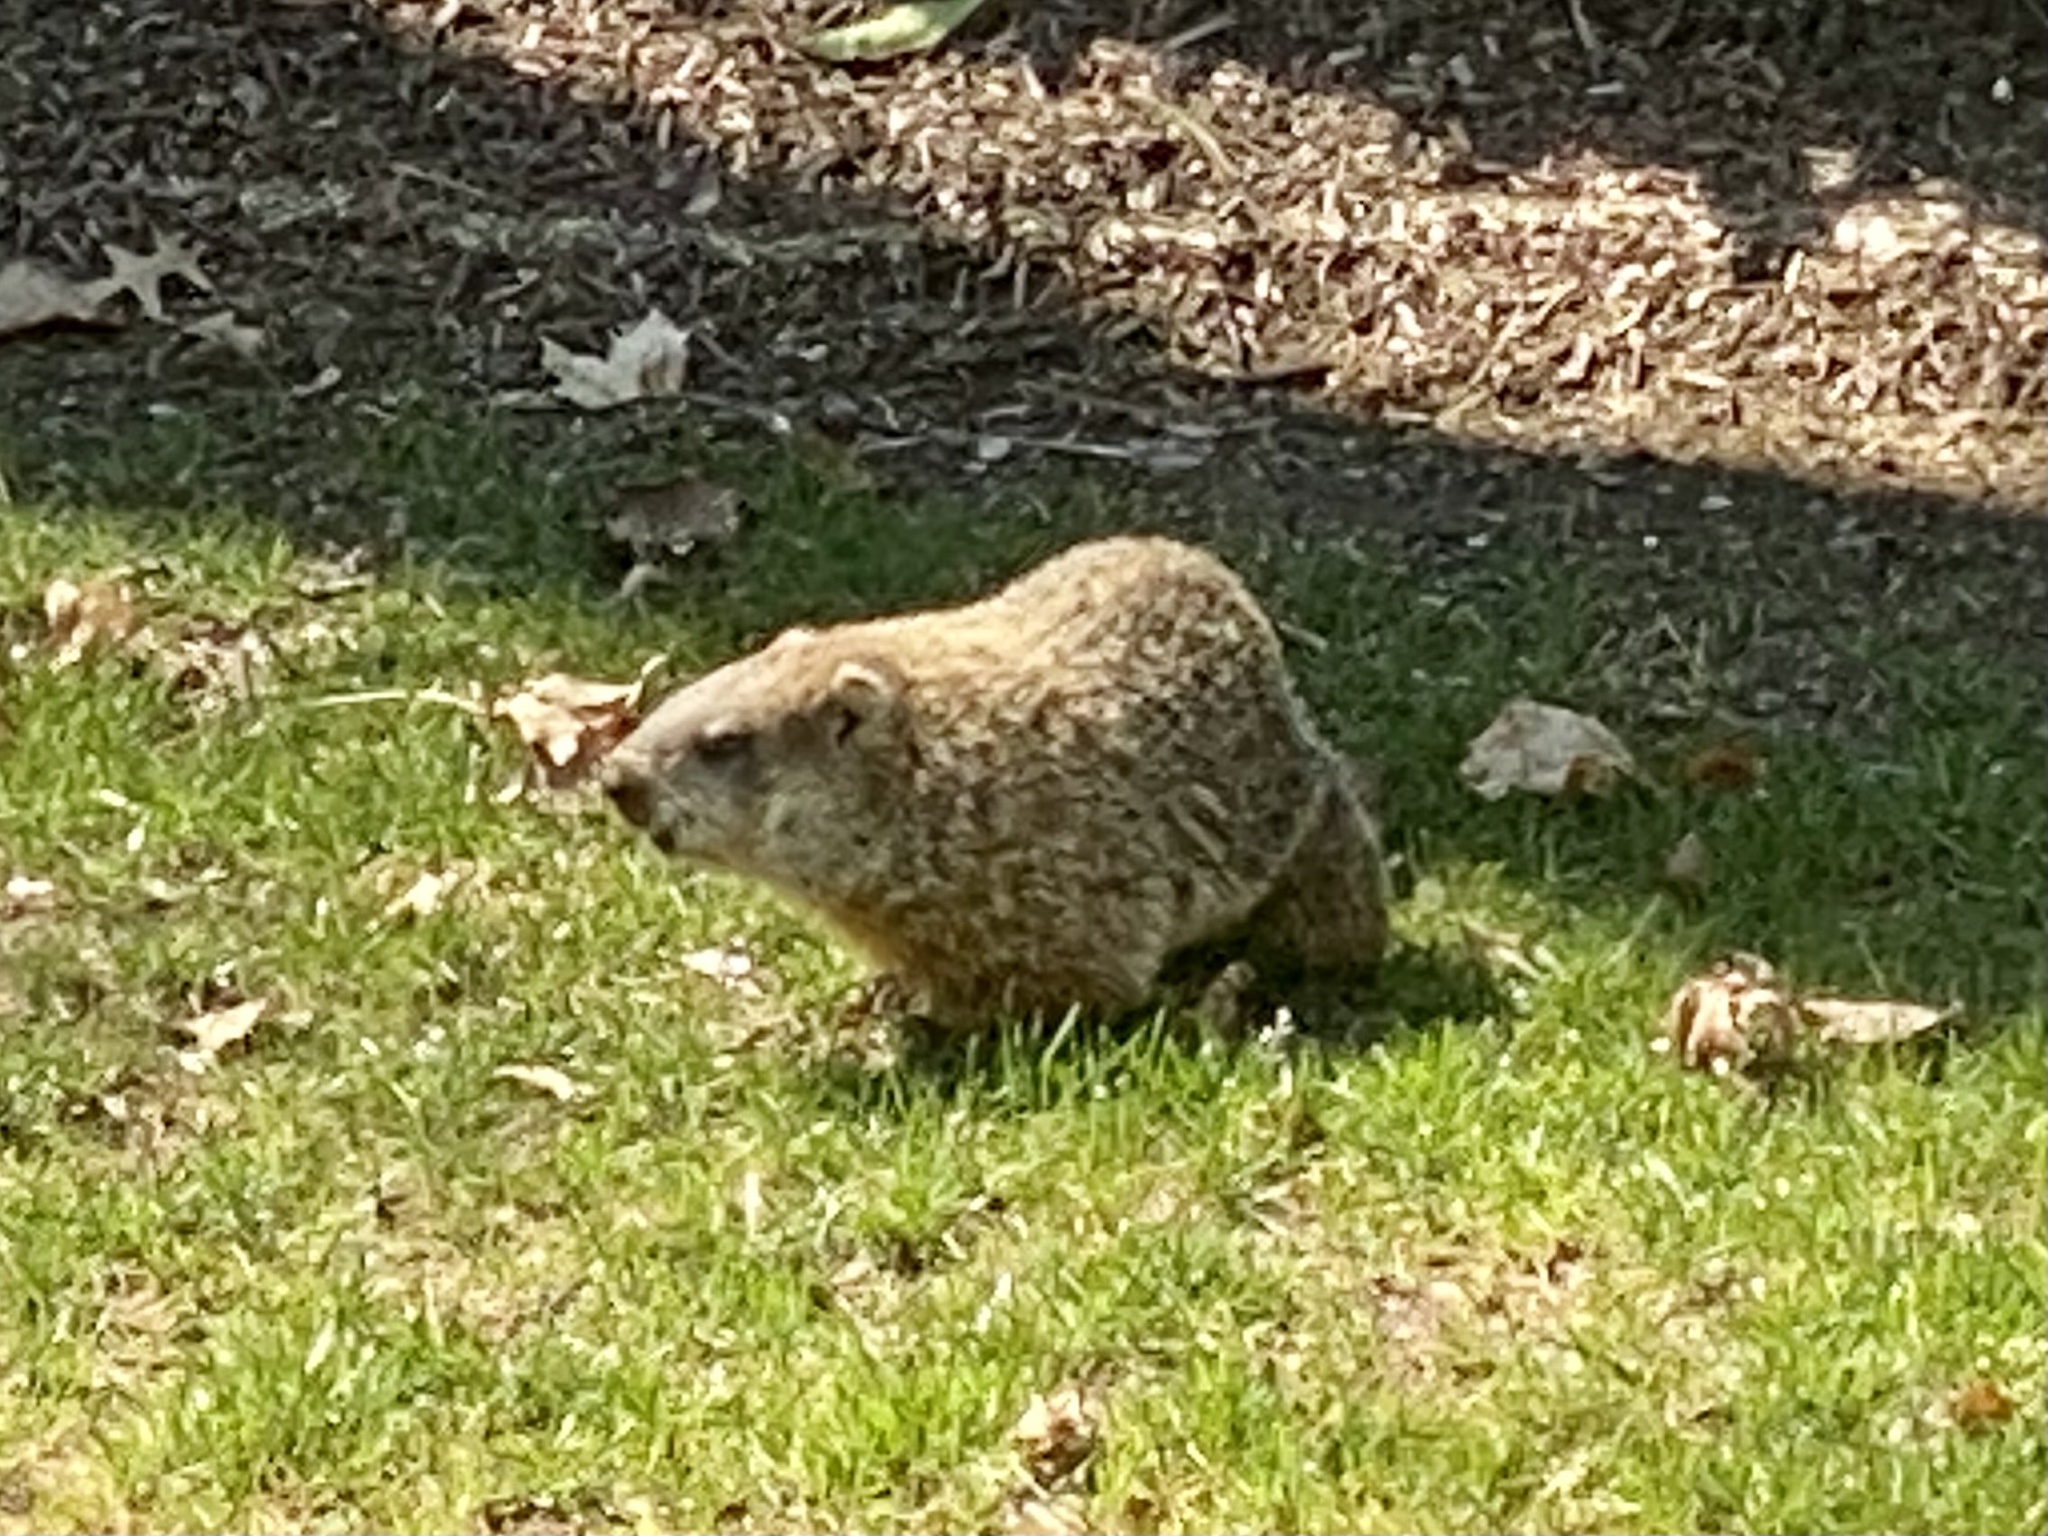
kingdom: Animalia
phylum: Chordata
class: Mammalia
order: Rodentia
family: Sciuridae
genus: Marmota
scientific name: Marmota monax
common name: Groundhog
